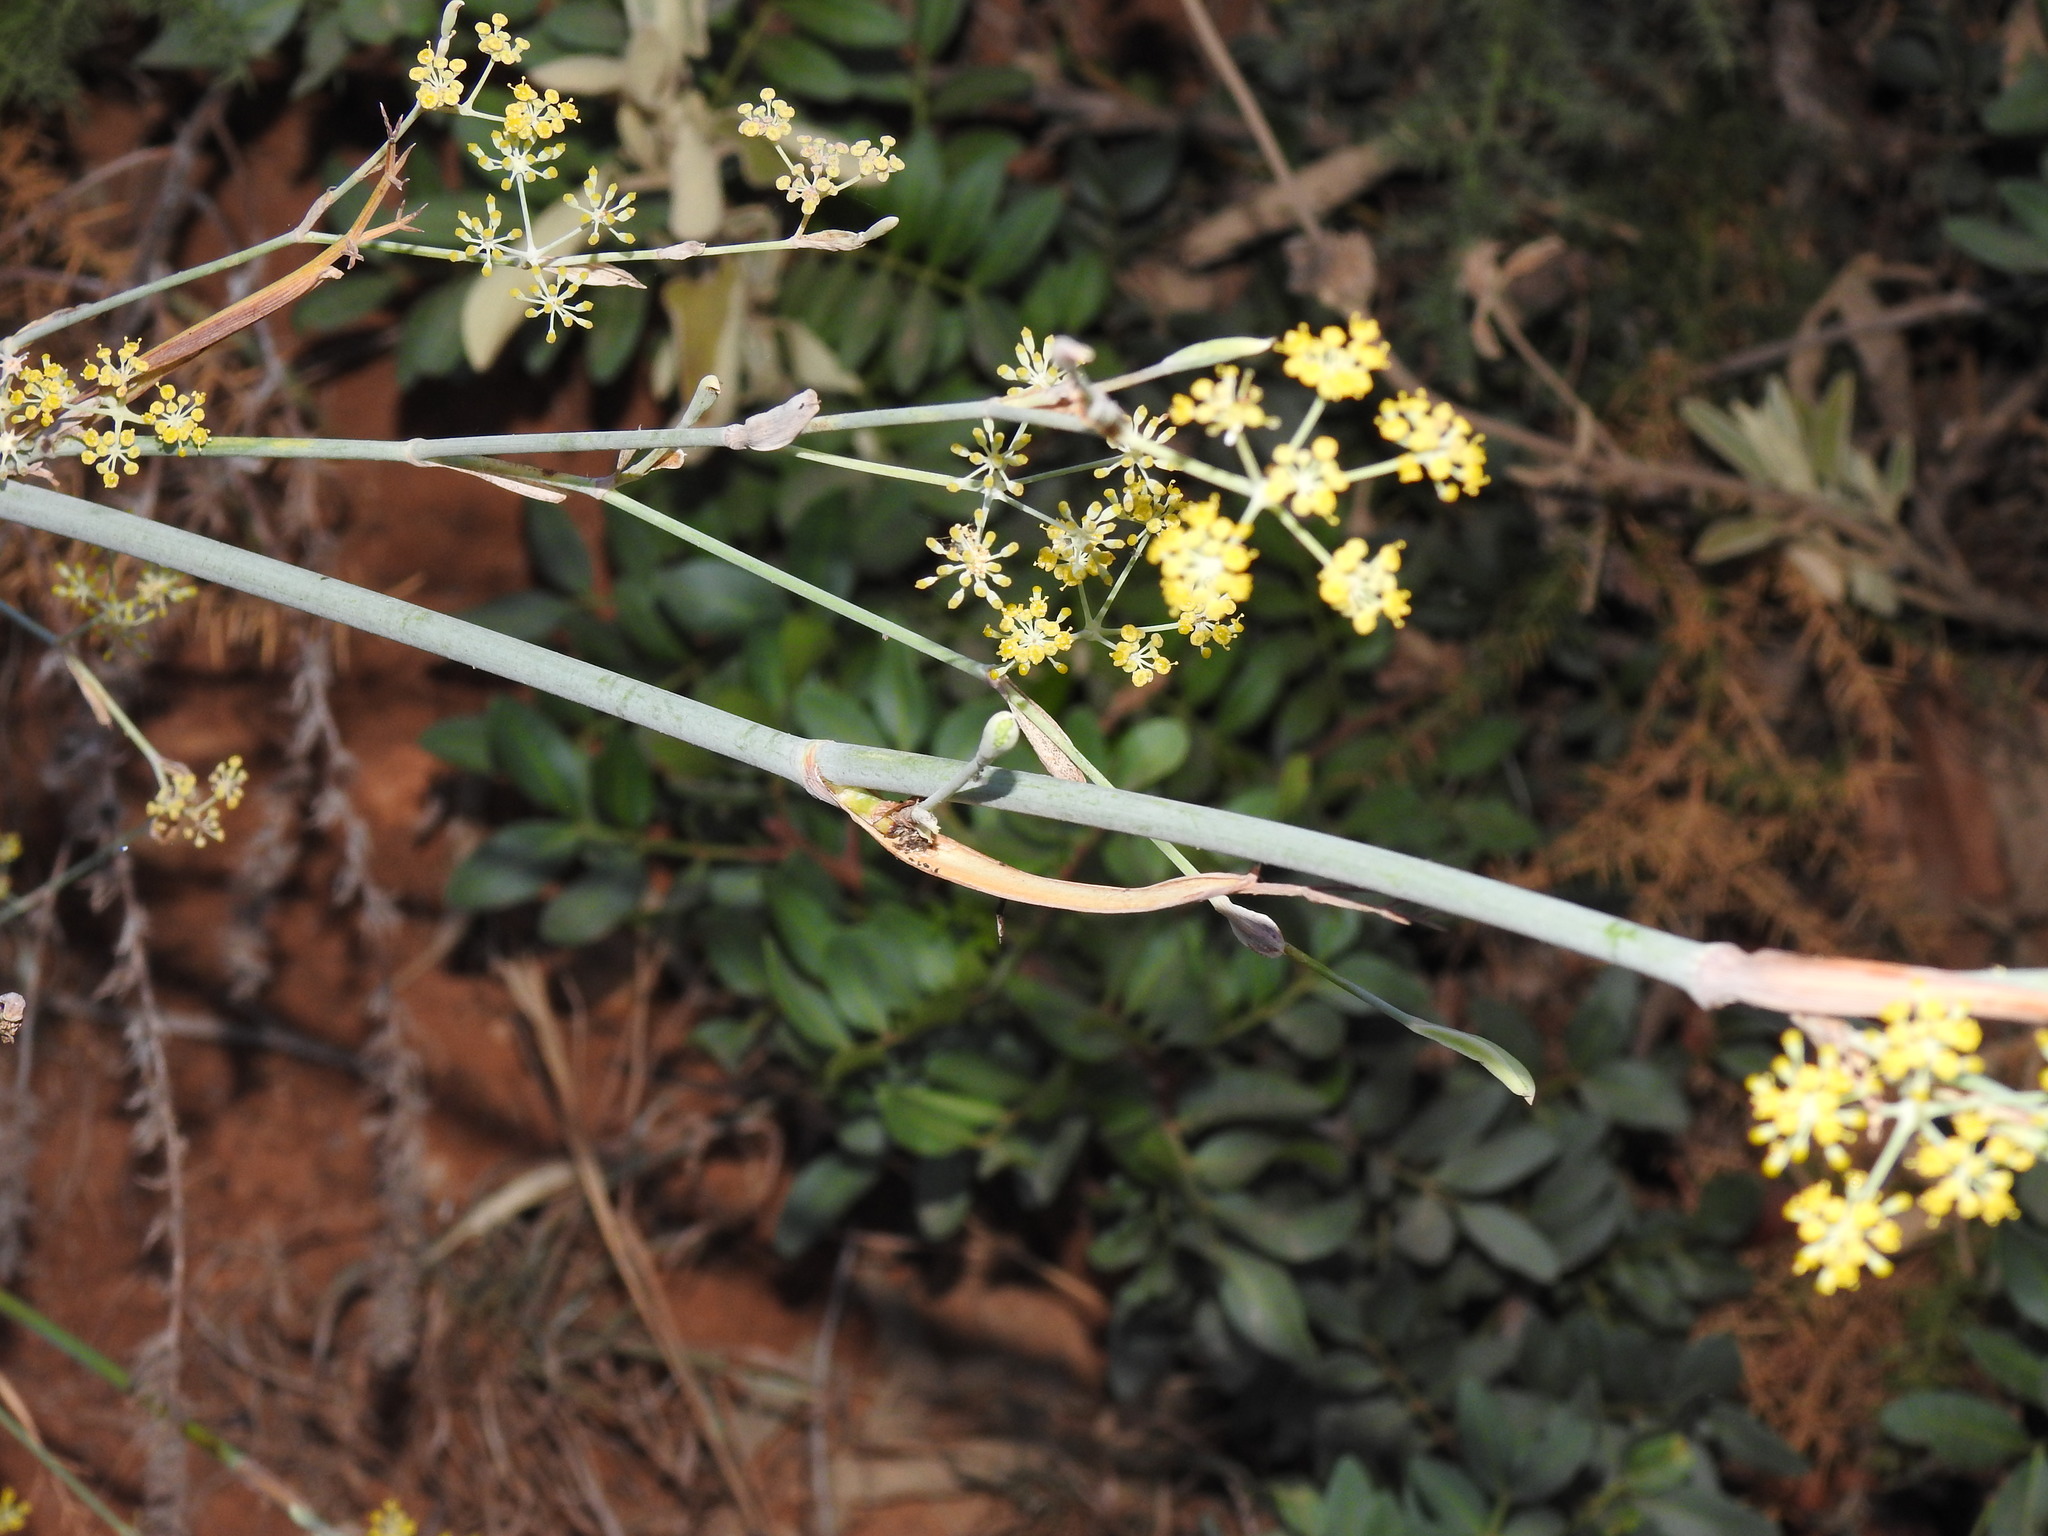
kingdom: Plantae
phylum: Tracheophyta
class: Magnoliopsida
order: Apiales
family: Apiaceae
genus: Foeniculum
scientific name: Foeniculum vulgare
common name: Fennel
